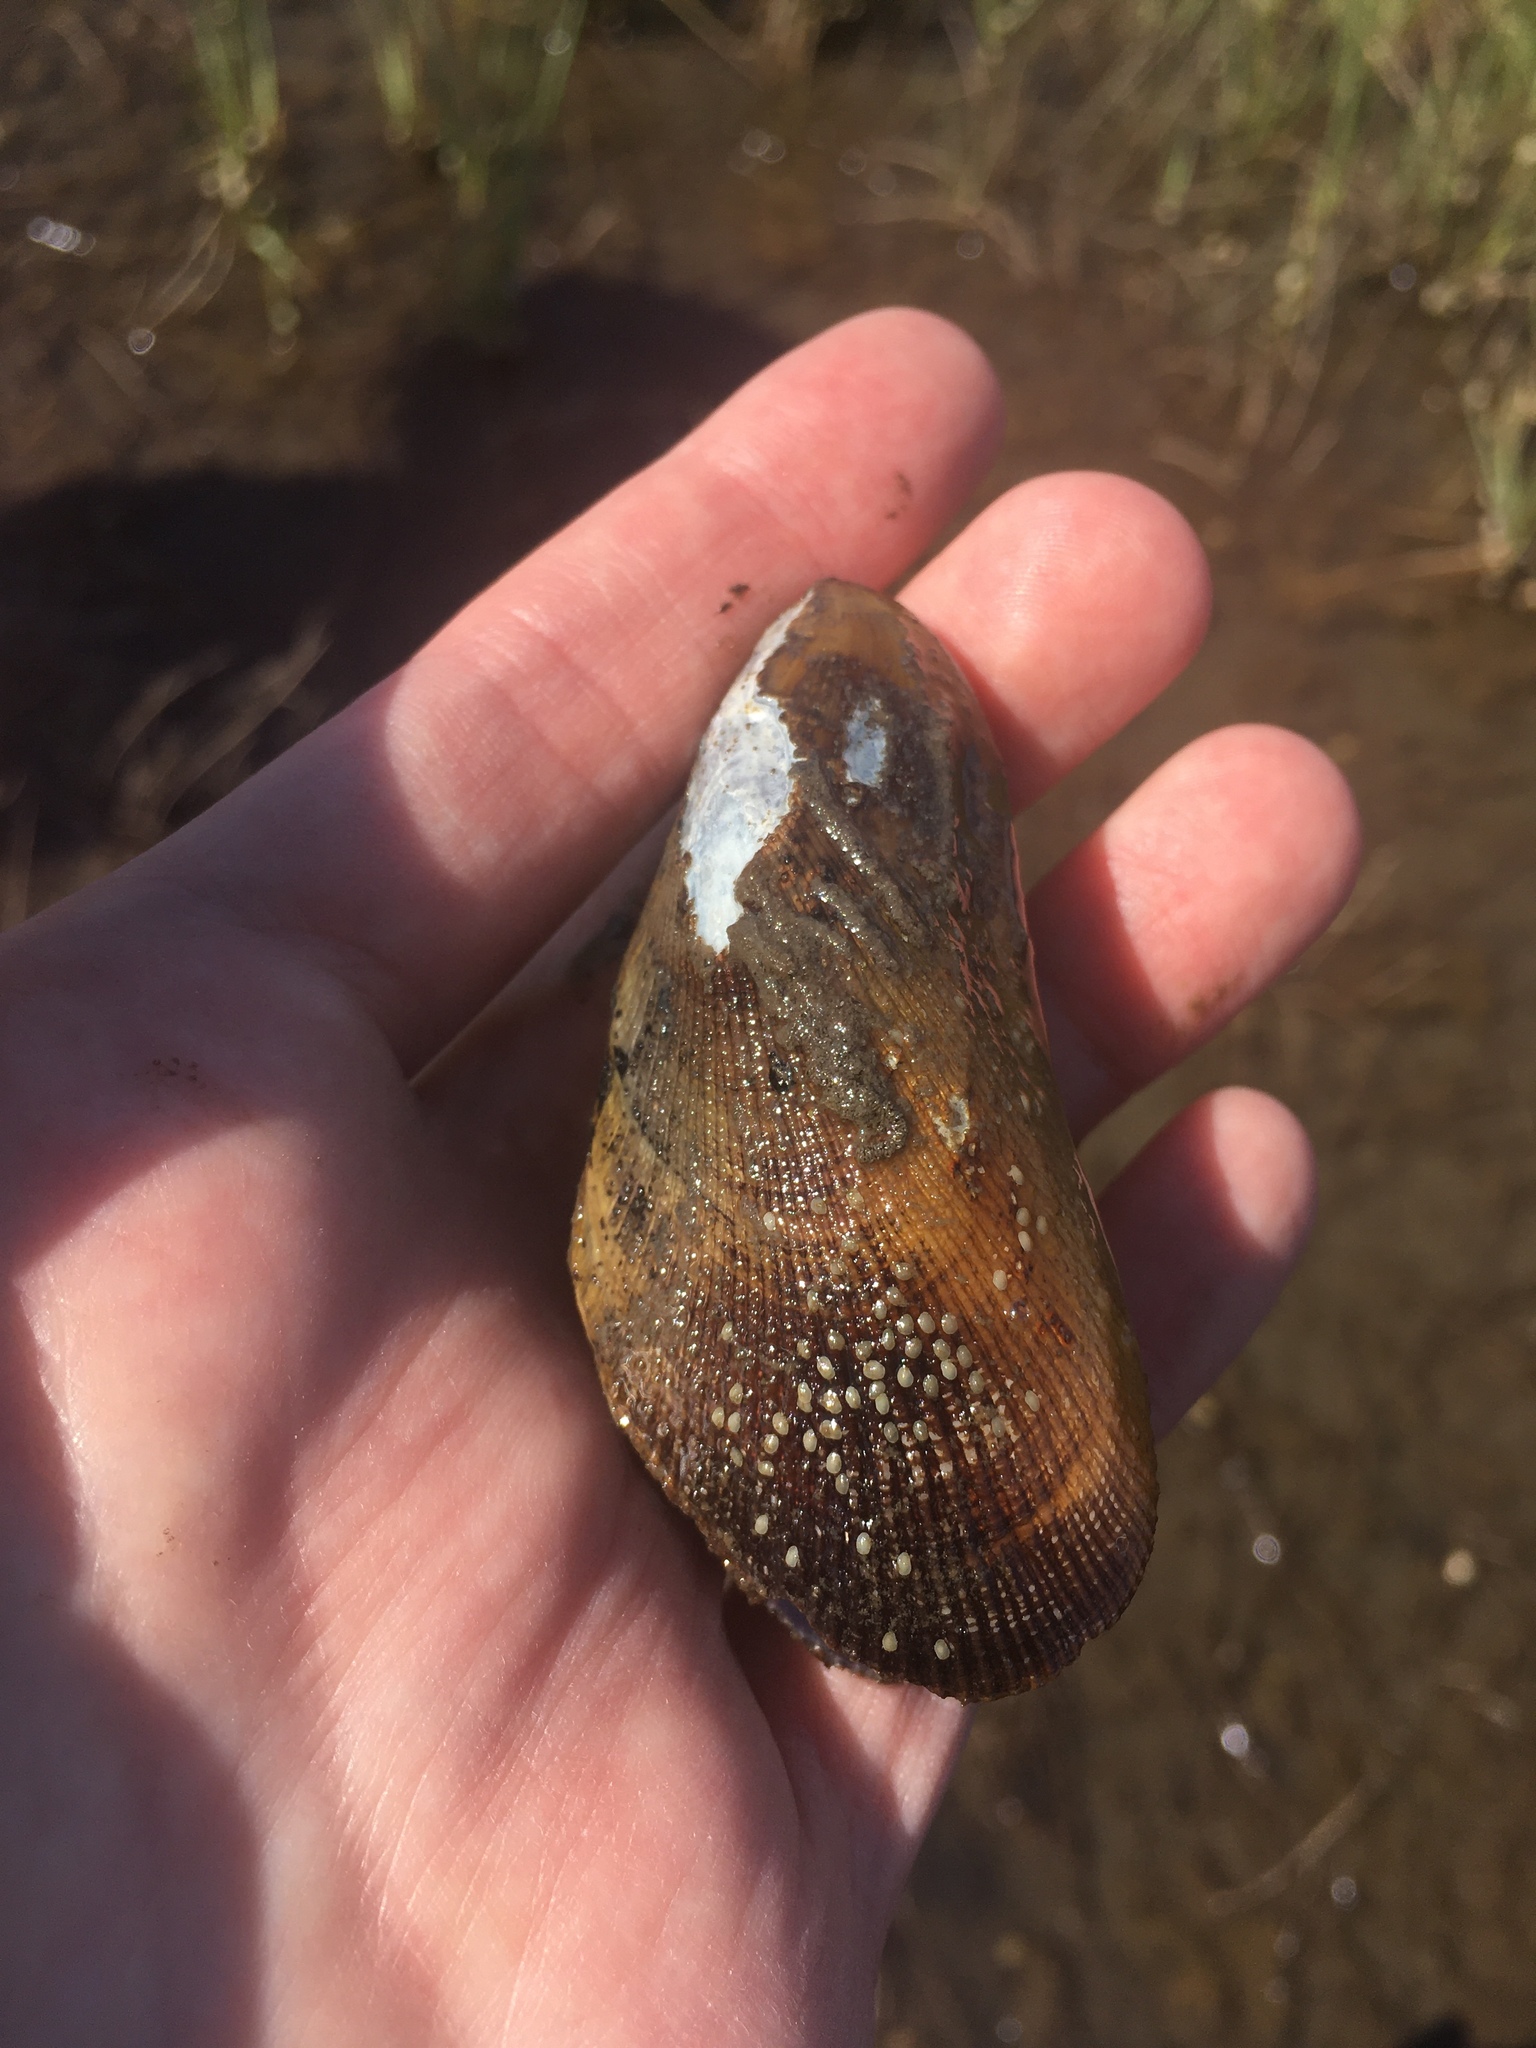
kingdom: Animalia
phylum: Mollusca
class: Bivalvia
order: Mytilida
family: Mytilidae
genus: Geukensia
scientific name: Geukensia granosissima
